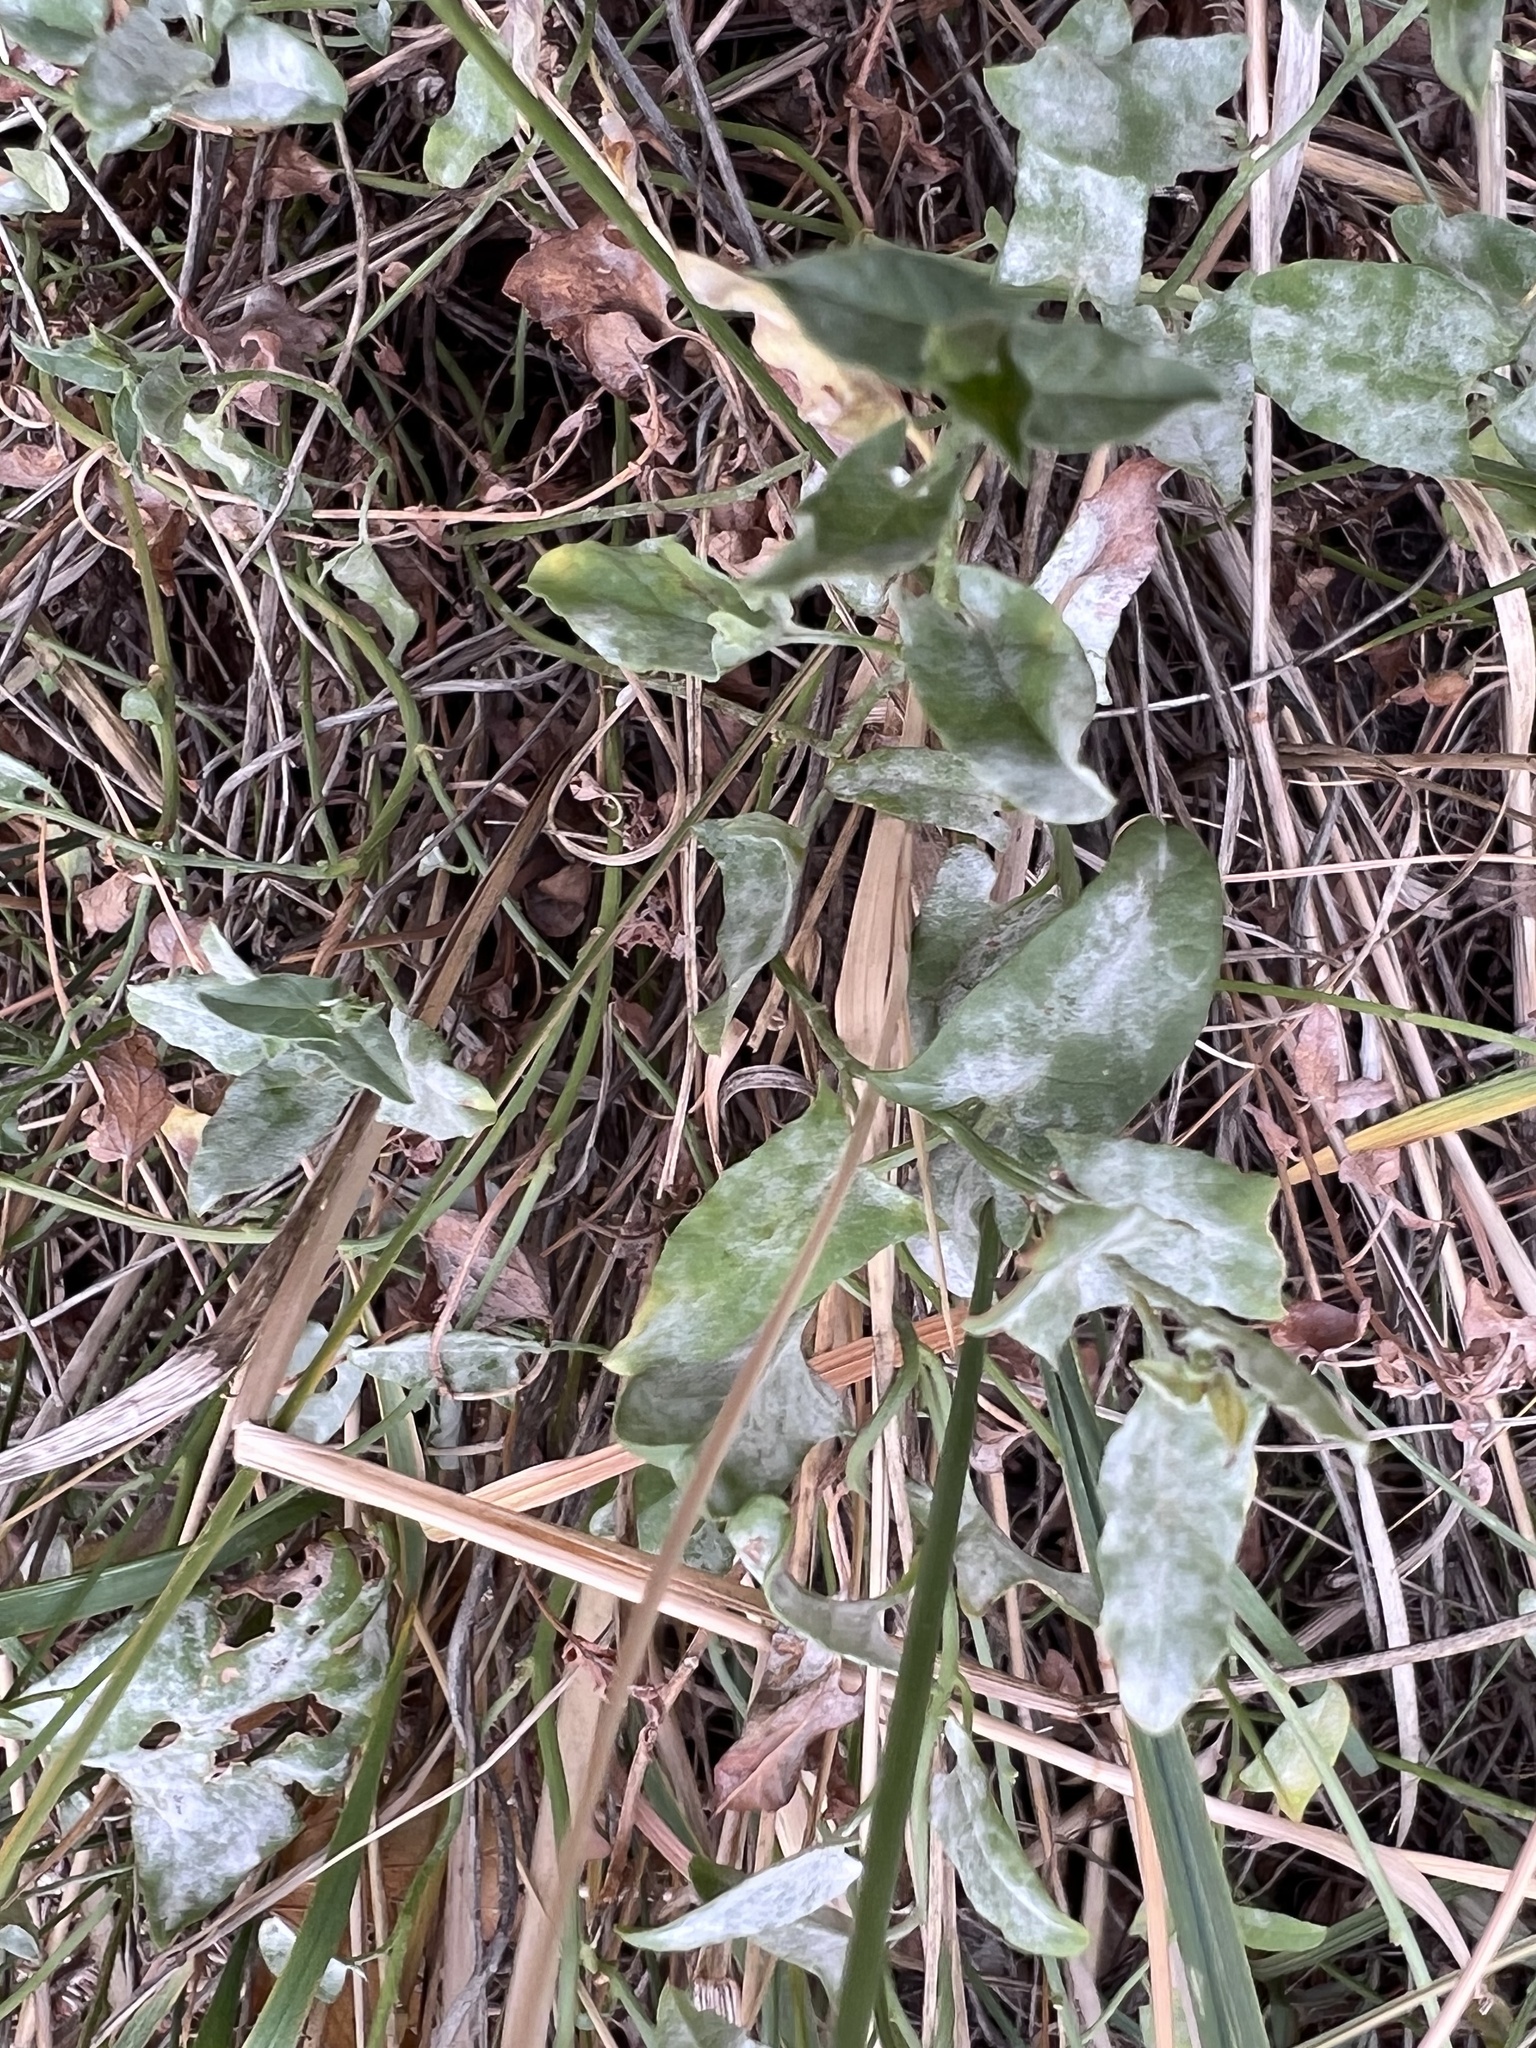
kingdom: Plantae
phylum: Tracheophyta
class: Magnoliopsida
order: Solanales
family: Convolvulaceae
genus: Convolvulus
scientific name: Convolvulus arvensis
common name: Field bindweed
